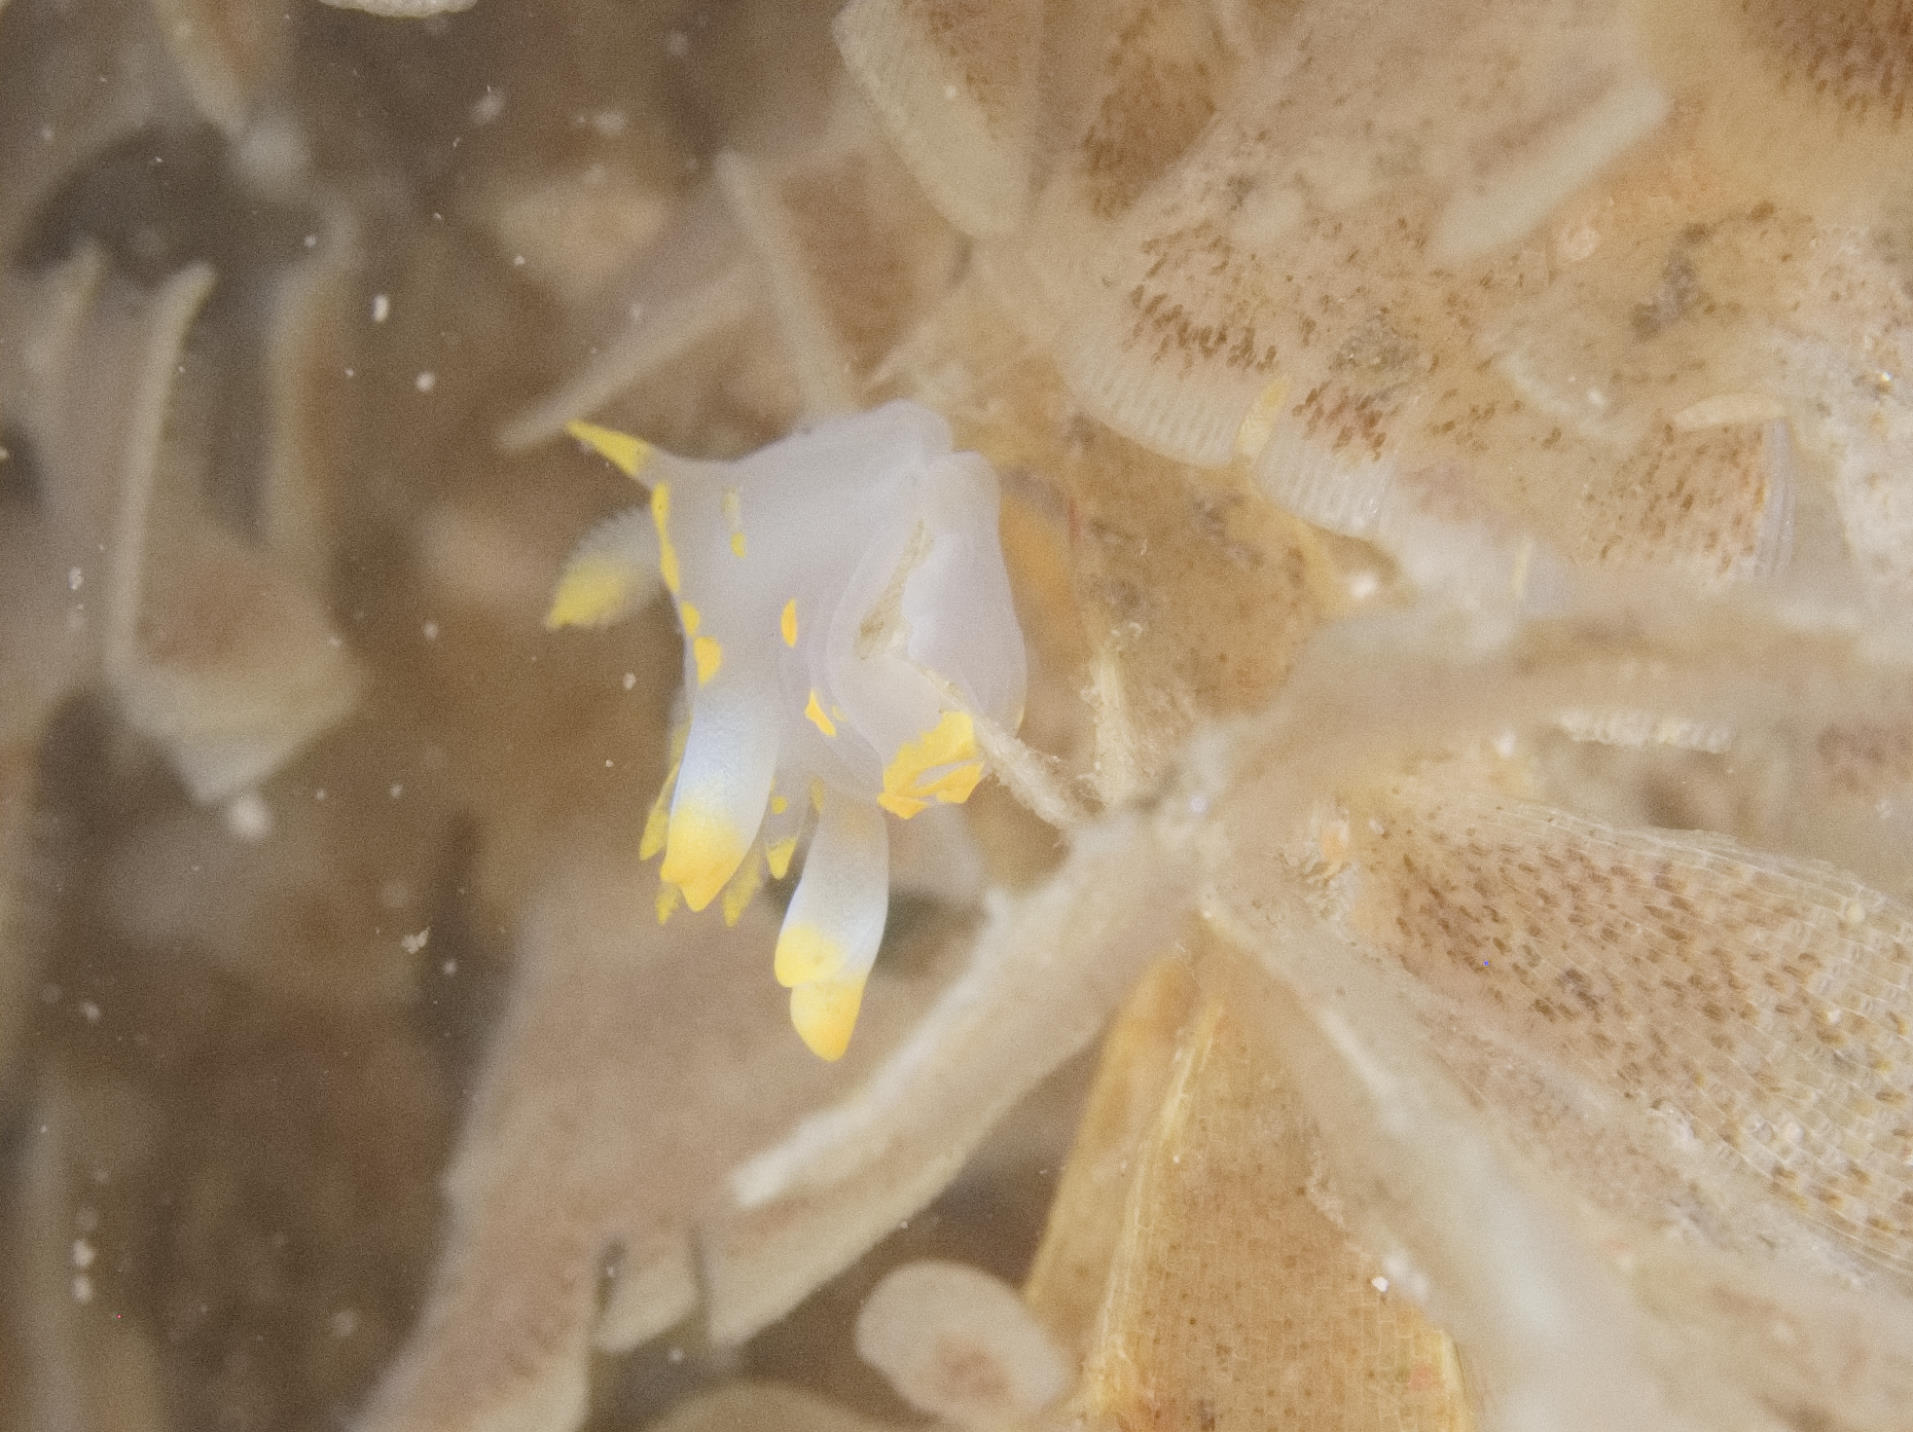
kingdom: Animalia
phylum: Mollusca
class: Gastropoda
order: Nudibranchia
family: Polyceridae
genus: Polycera
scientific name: Polycera faeroensis
